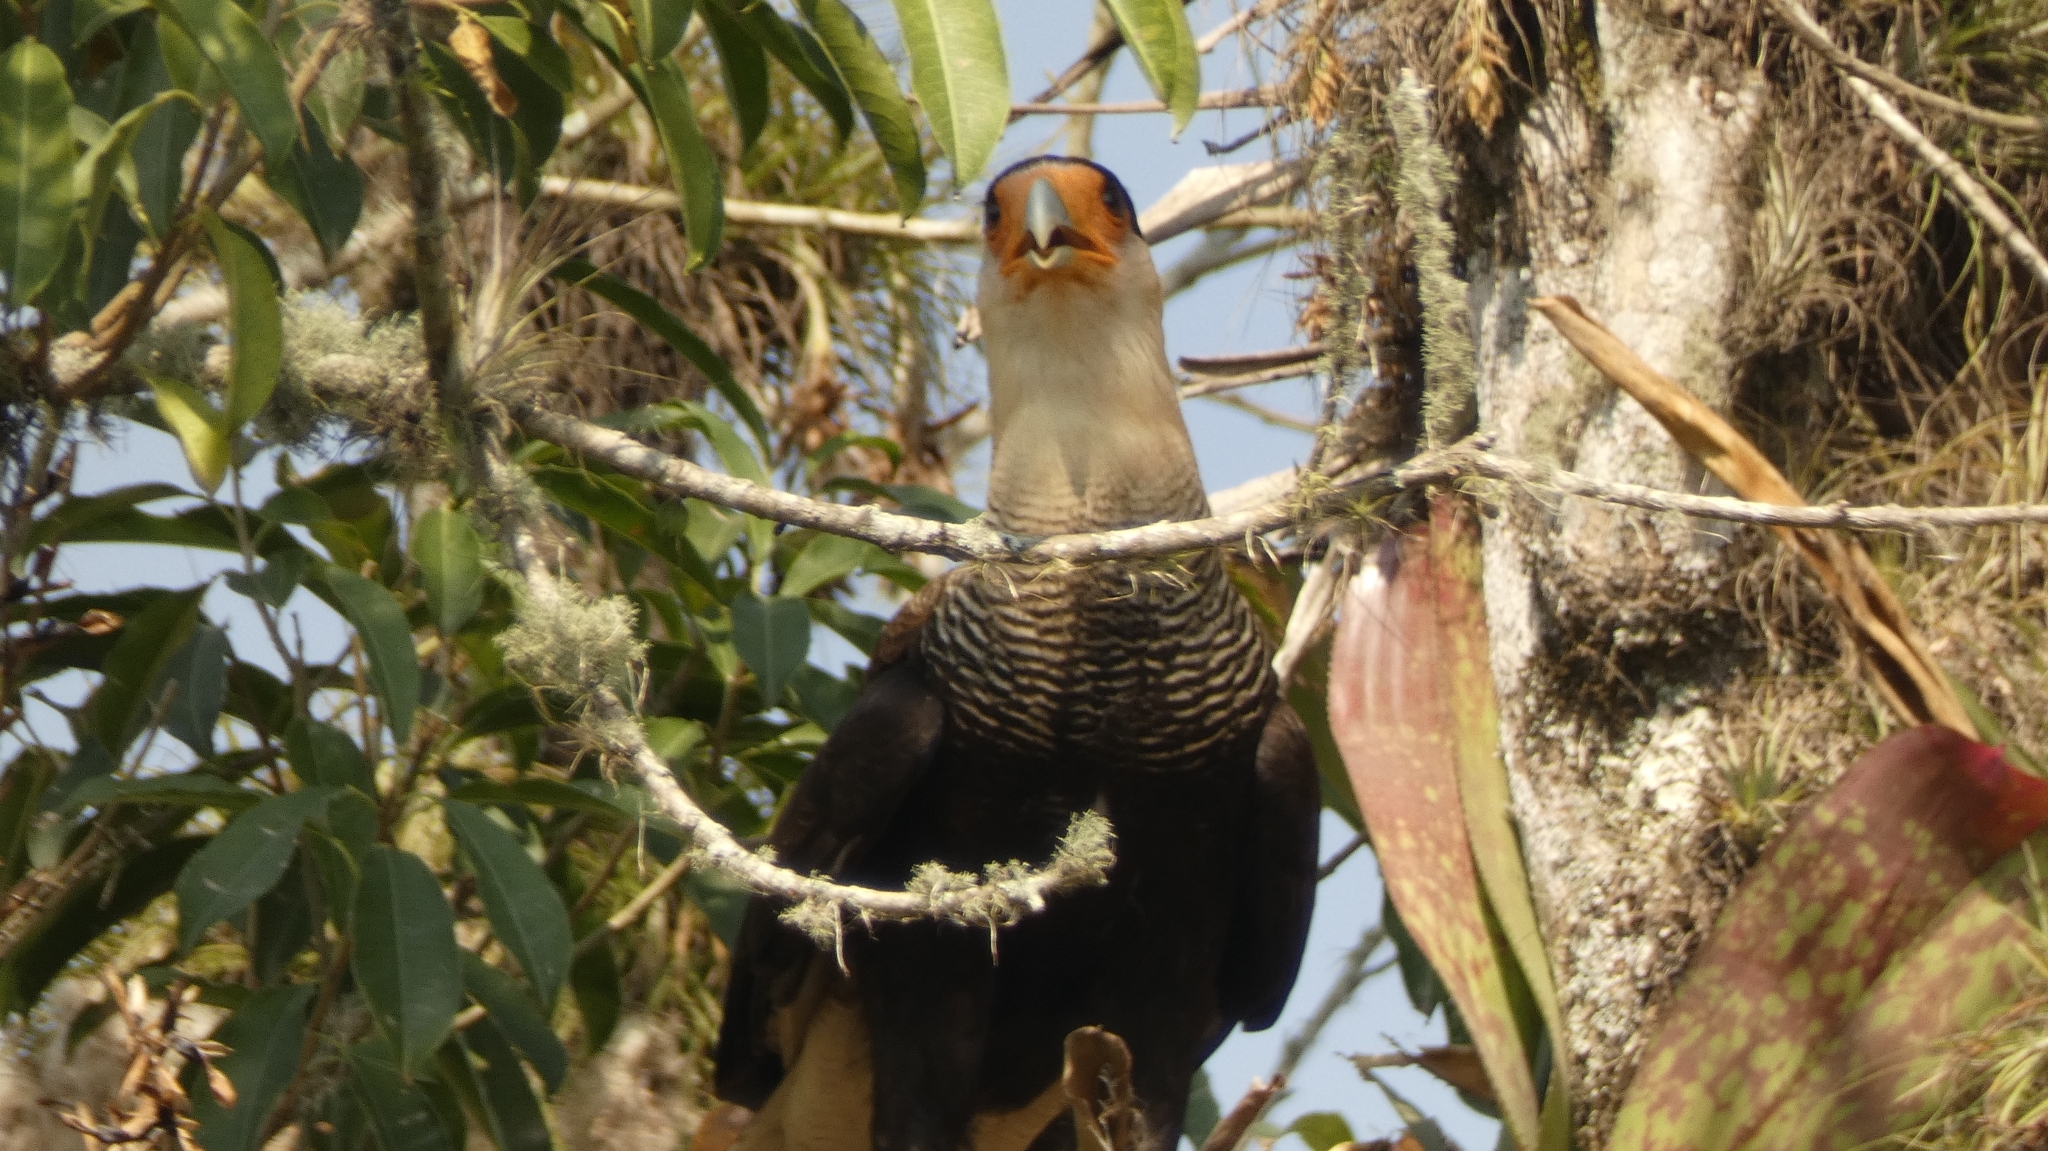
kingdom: Animalia
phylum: Chordata
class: Aves
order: Falconiformes
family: Falconidae
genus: Caracara
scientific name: Caracara plancus
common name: Southern caracara
